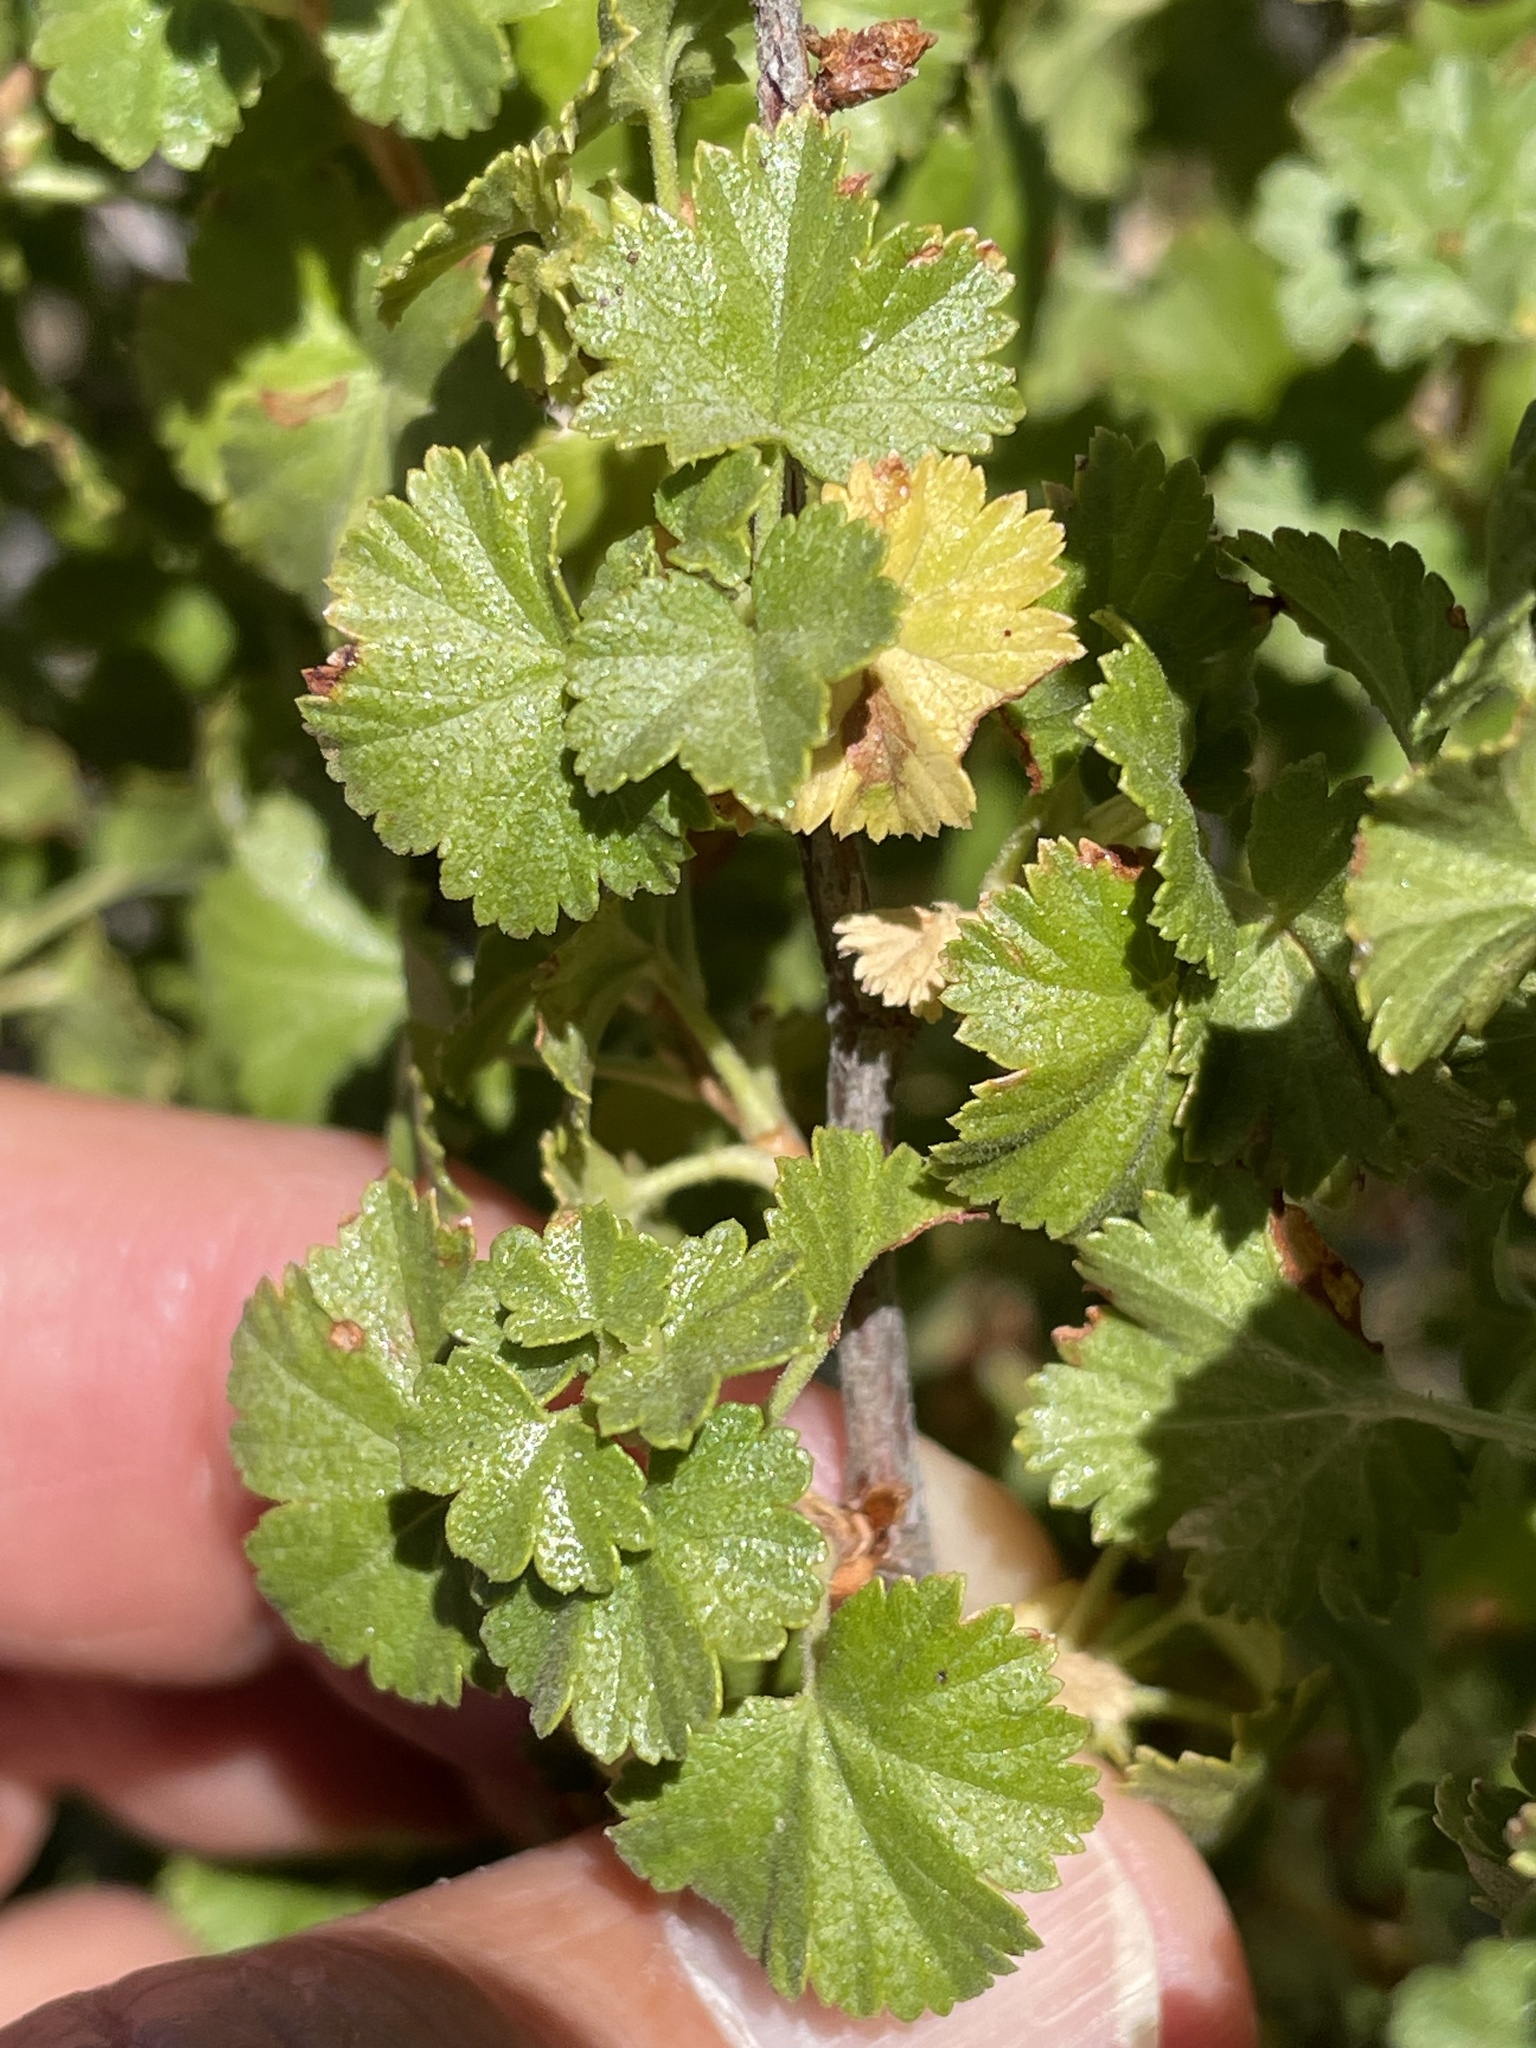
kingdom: Plantae
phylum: Tracheophyta
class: Magnoliopsida
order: Saxifragales
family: Grossulariaceae
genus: Ribes
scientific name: Ribes cereum
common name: Wax currant
